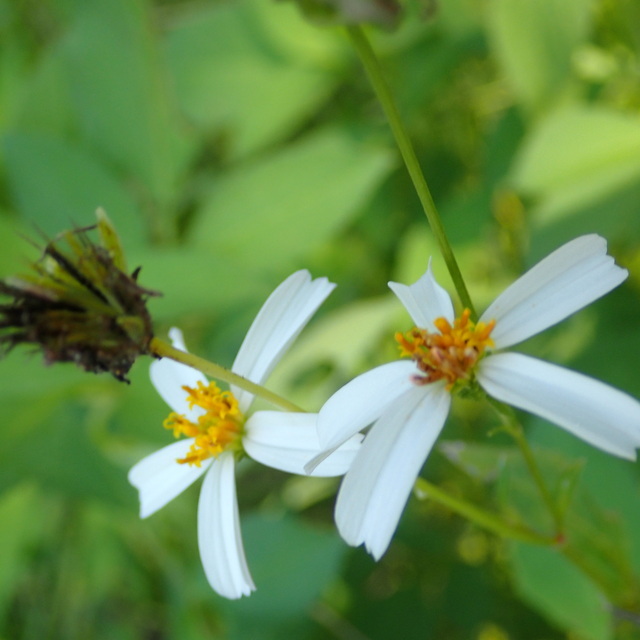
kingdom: Plantae
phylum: Tracheophyta
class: Magnoliopsida
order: Asterales
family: Asteraceae
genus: Bidens
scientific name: Bidens alba
